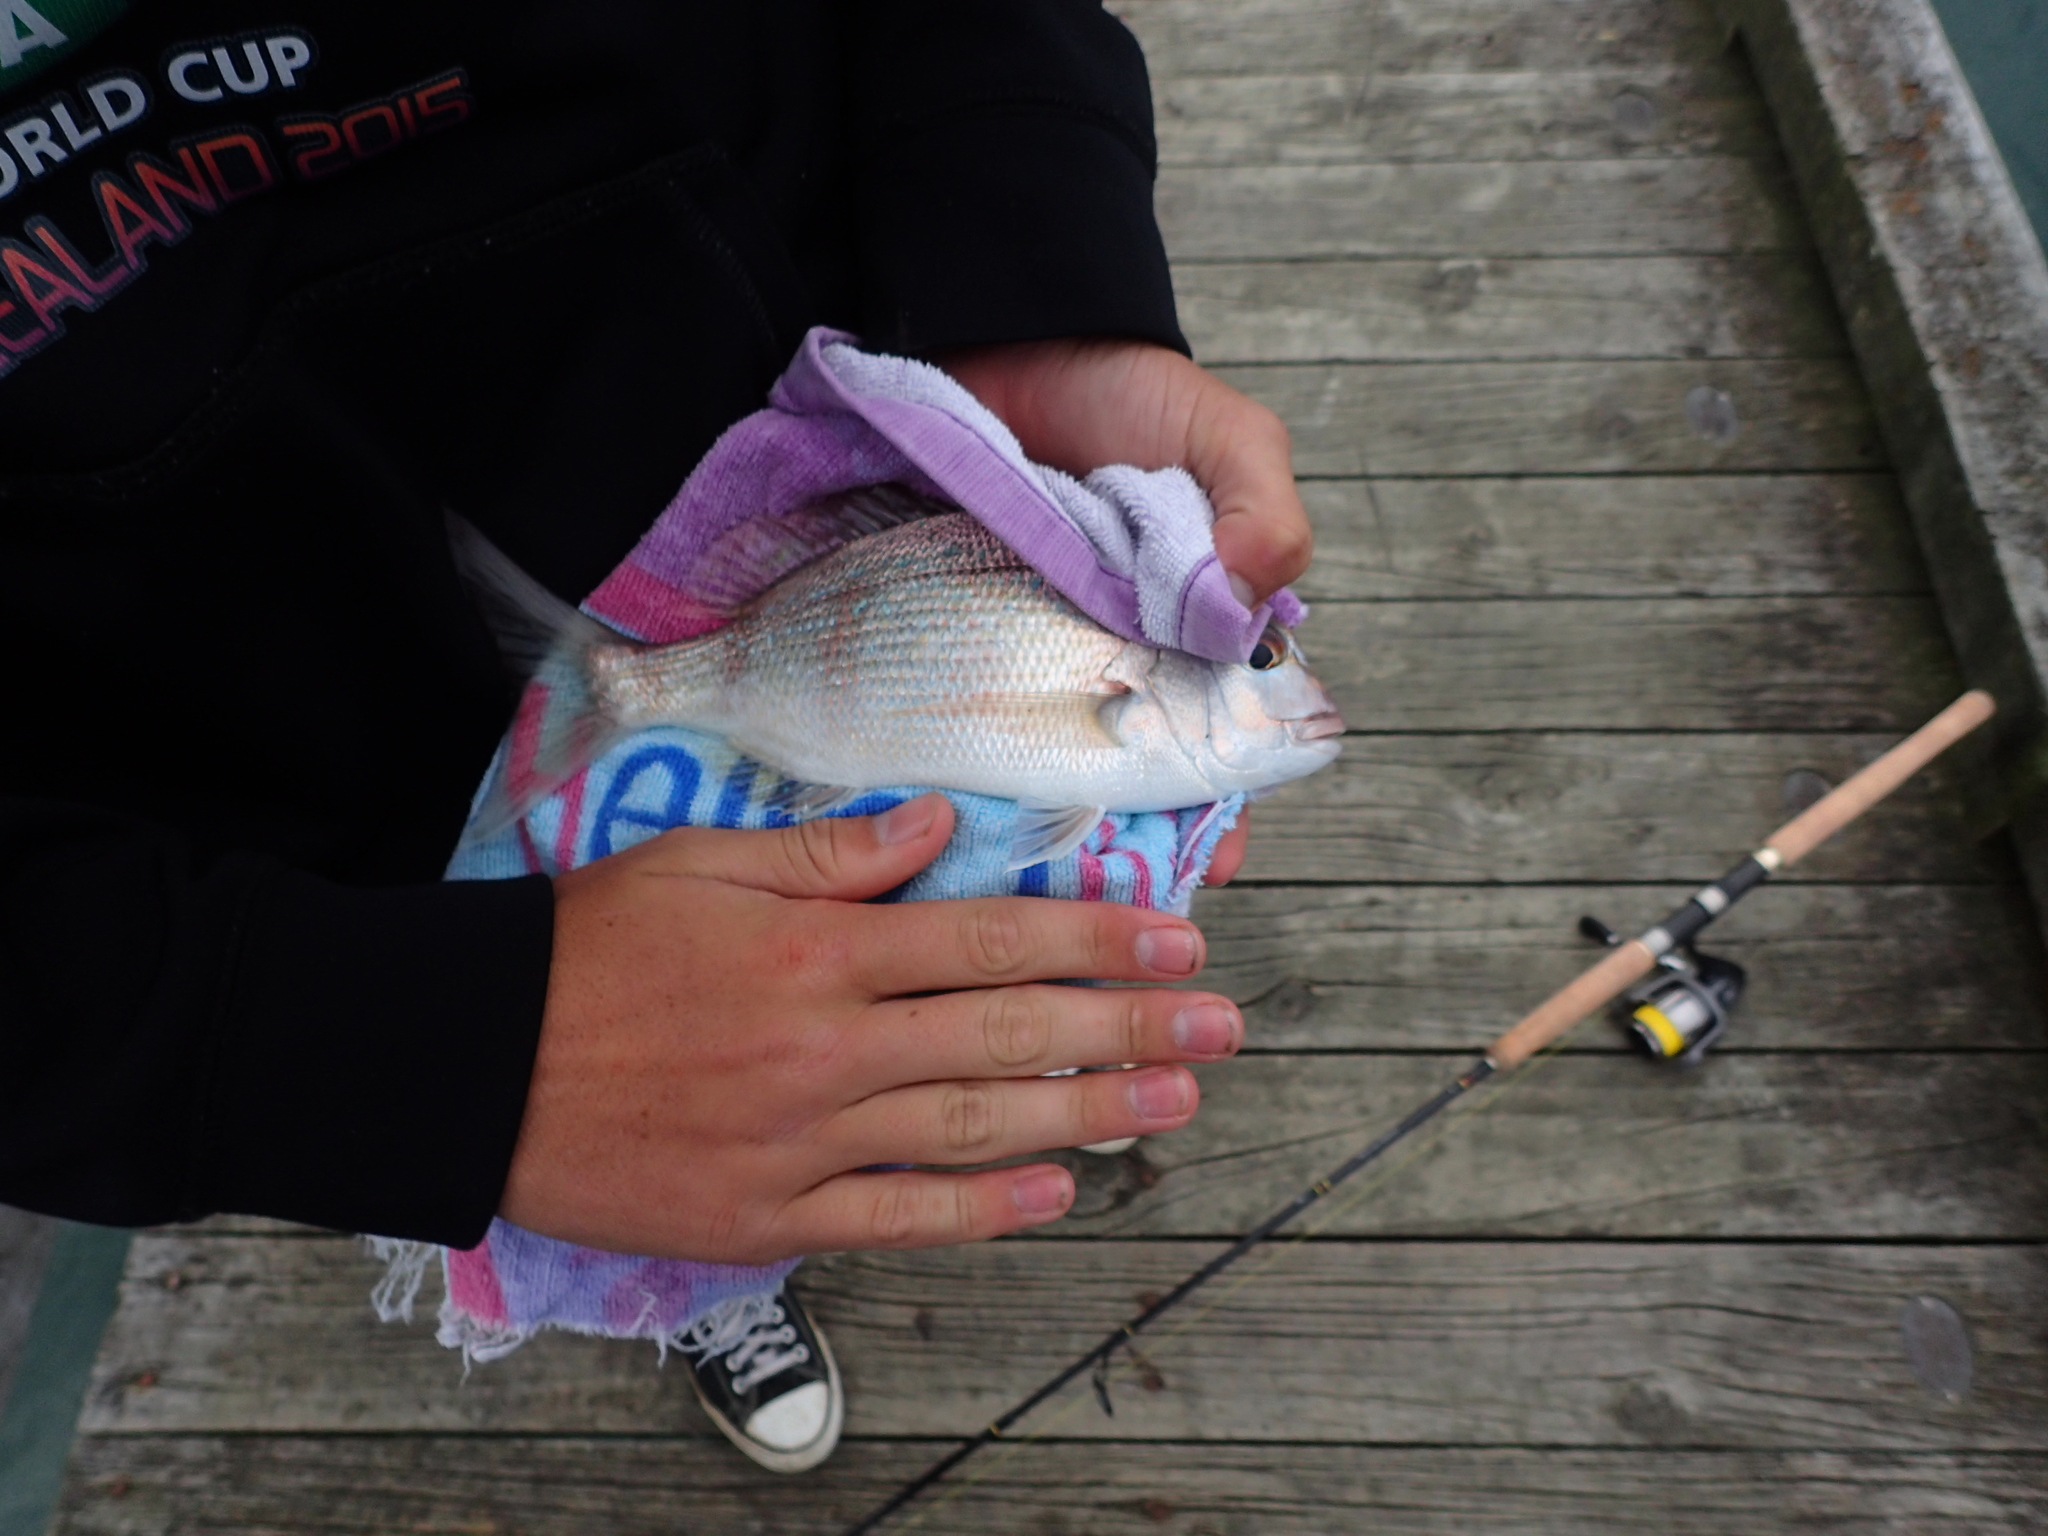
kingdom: Animalia
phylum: Chordata
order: Perciformes
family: Sparidae
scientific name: Sparidae
